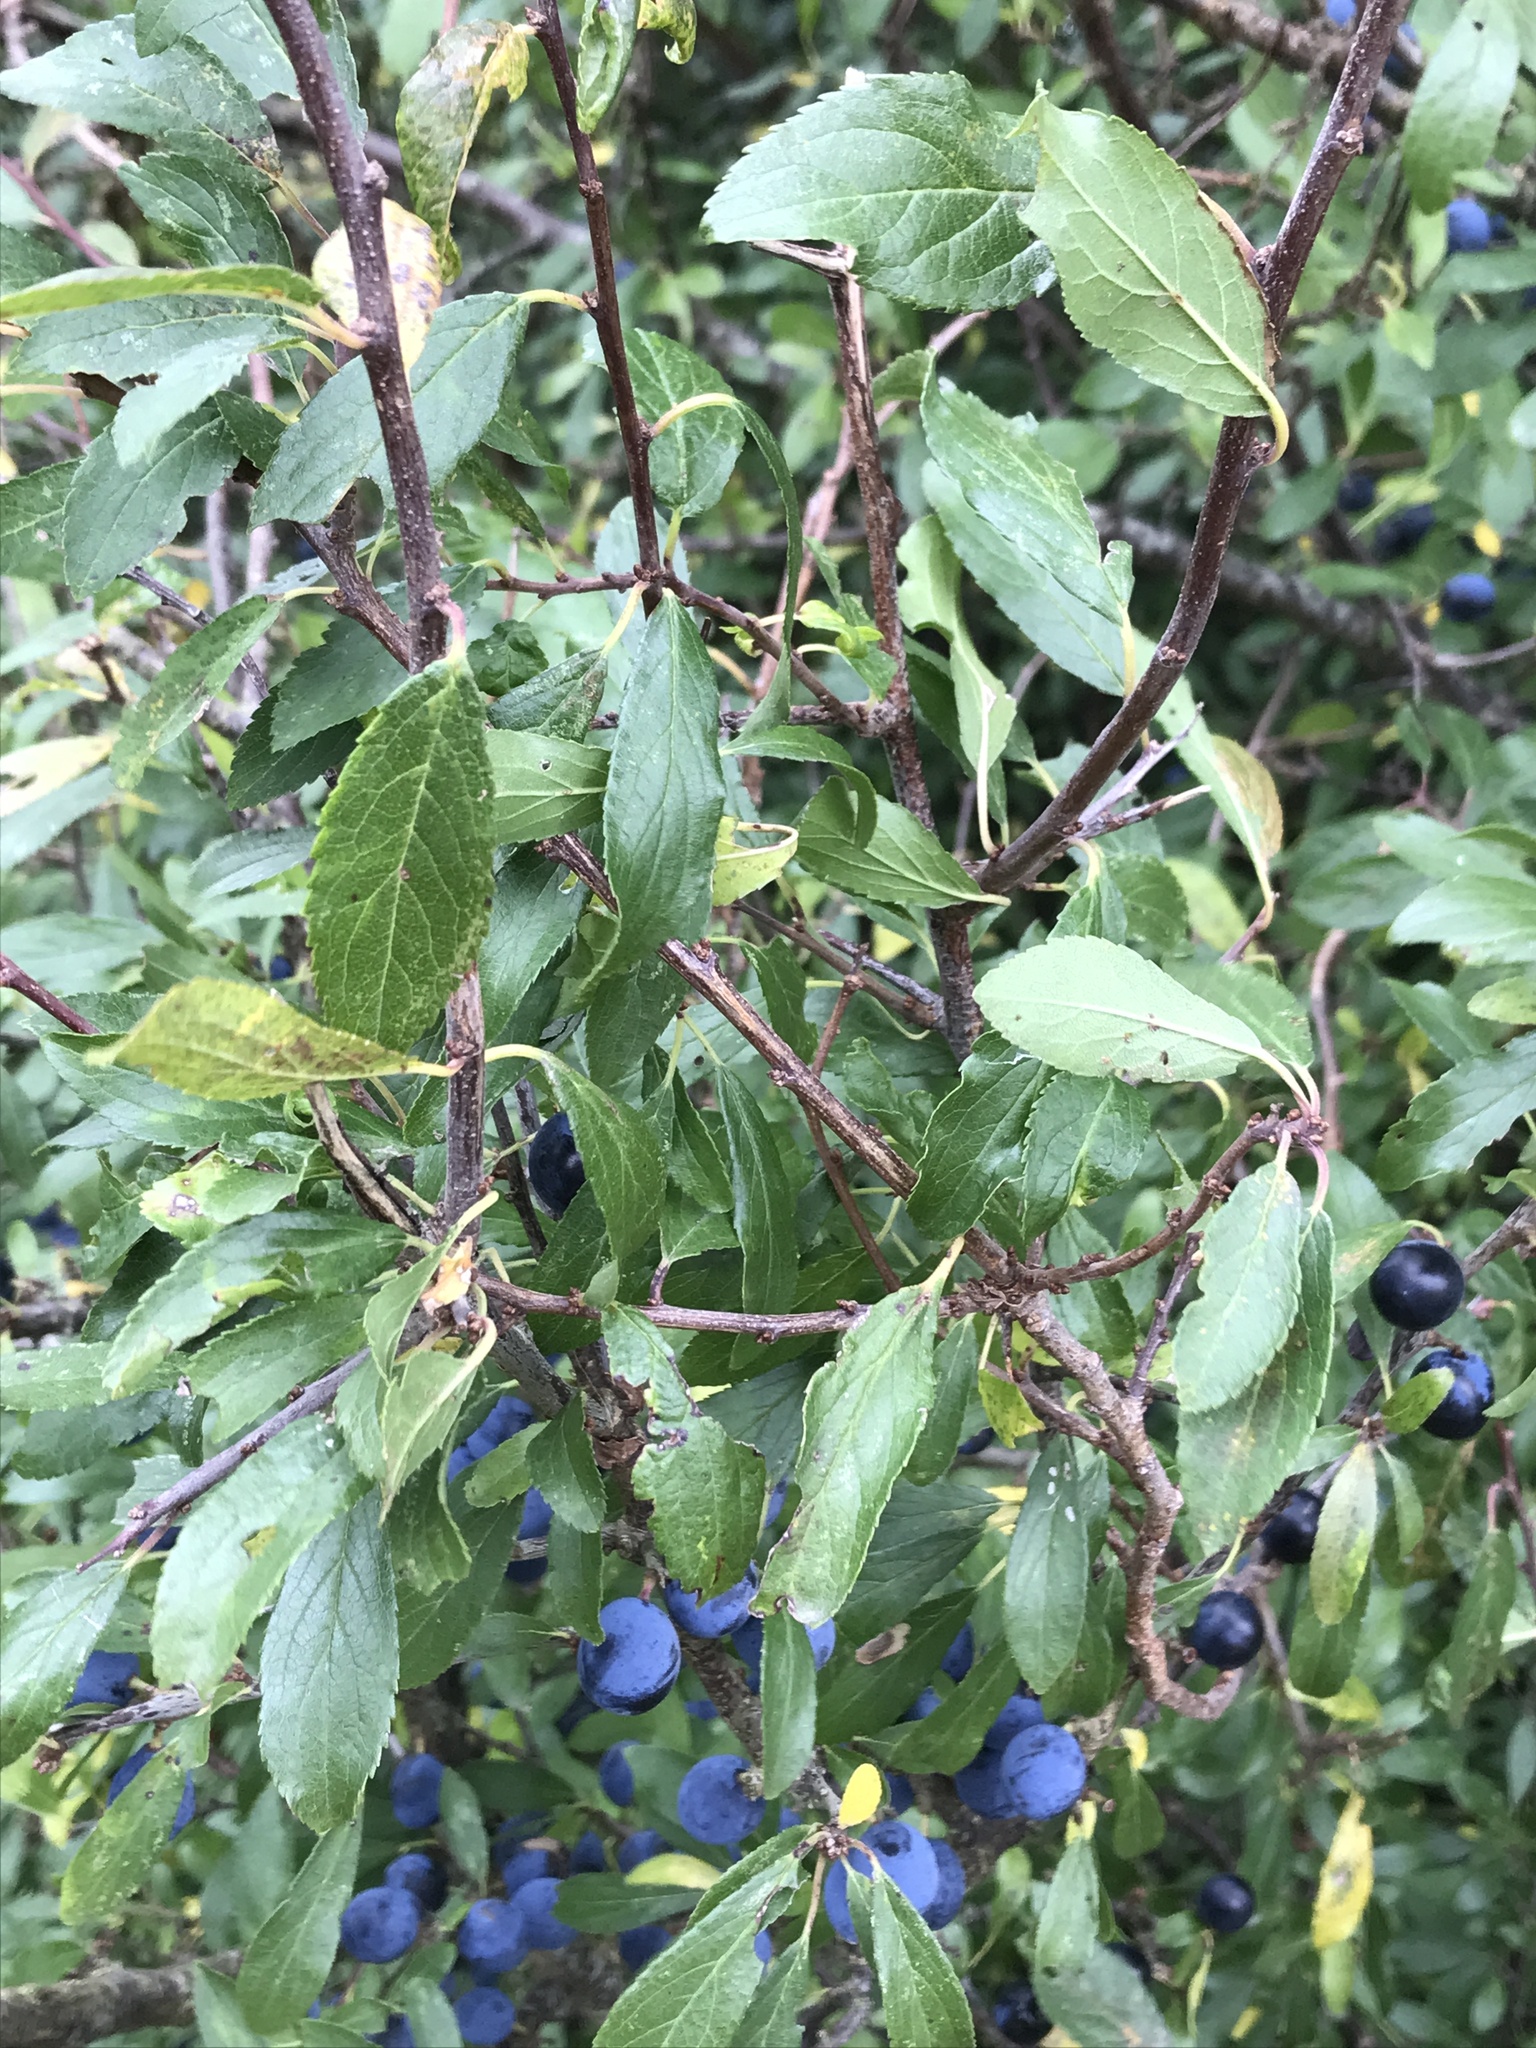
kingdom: Plantae
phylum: Tracheophyta
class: Magnoliopsida
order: Rosales
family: Rosaceae
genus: Prunus
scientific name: Prunus spinosa
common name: Blackthorn
